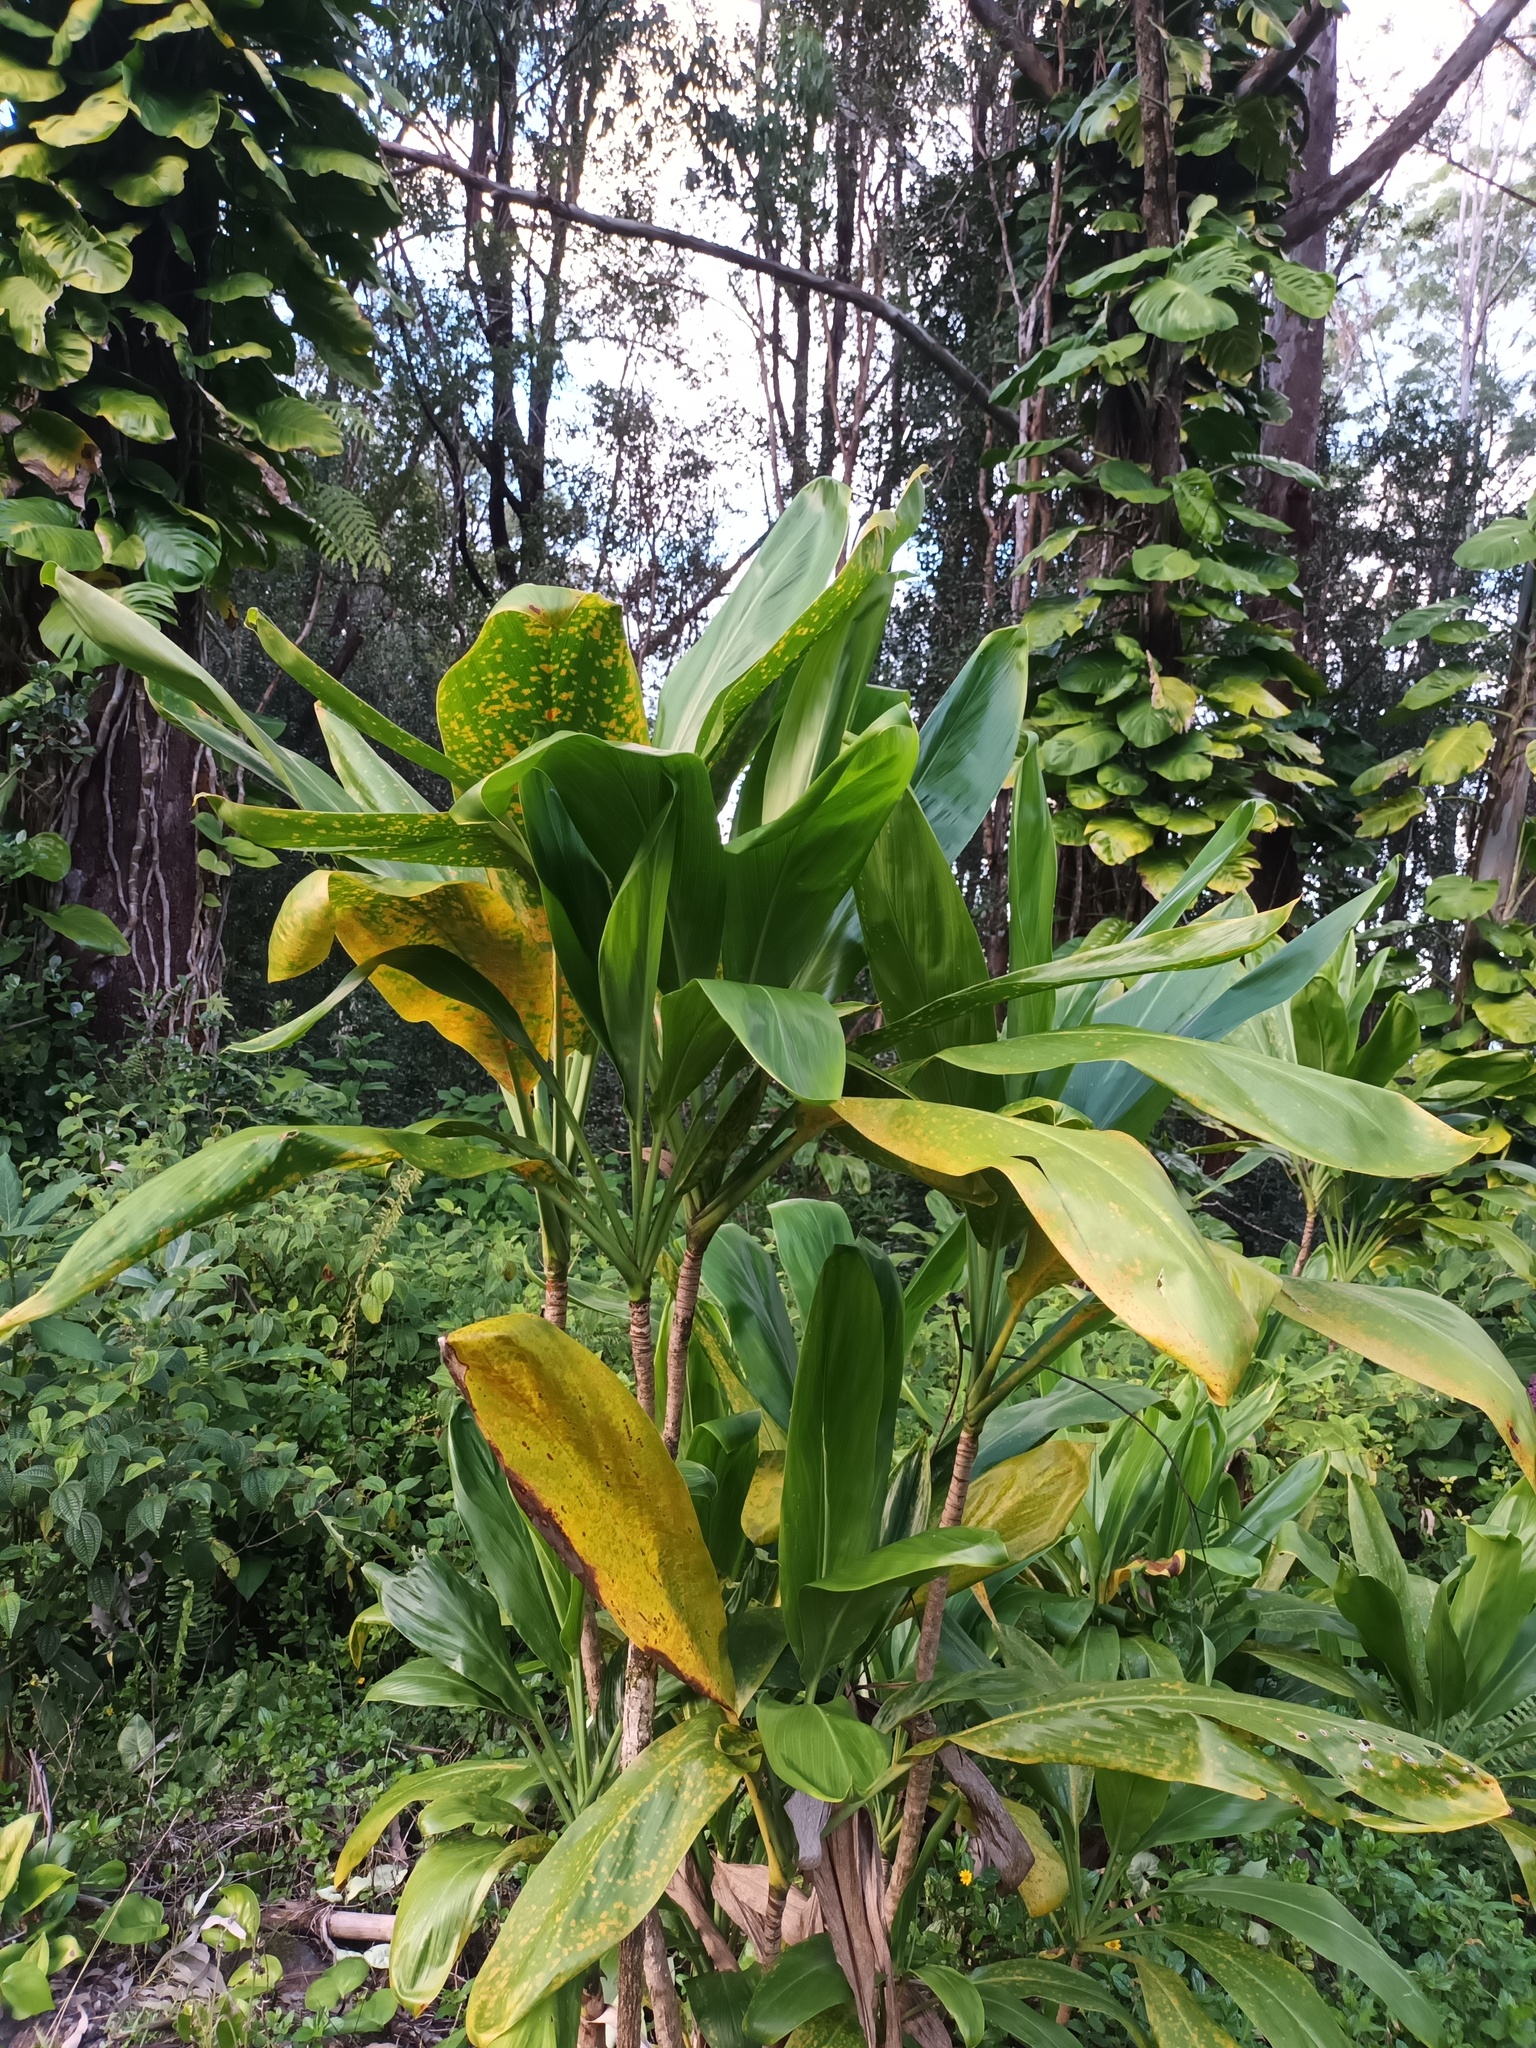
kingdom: Plantae
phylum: Tracheophyta
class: Liliopsida
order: Asparagales
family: Asparagaceae
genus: Cordyline
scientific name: Cordyline fruticosa
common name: Good-luck-plant
